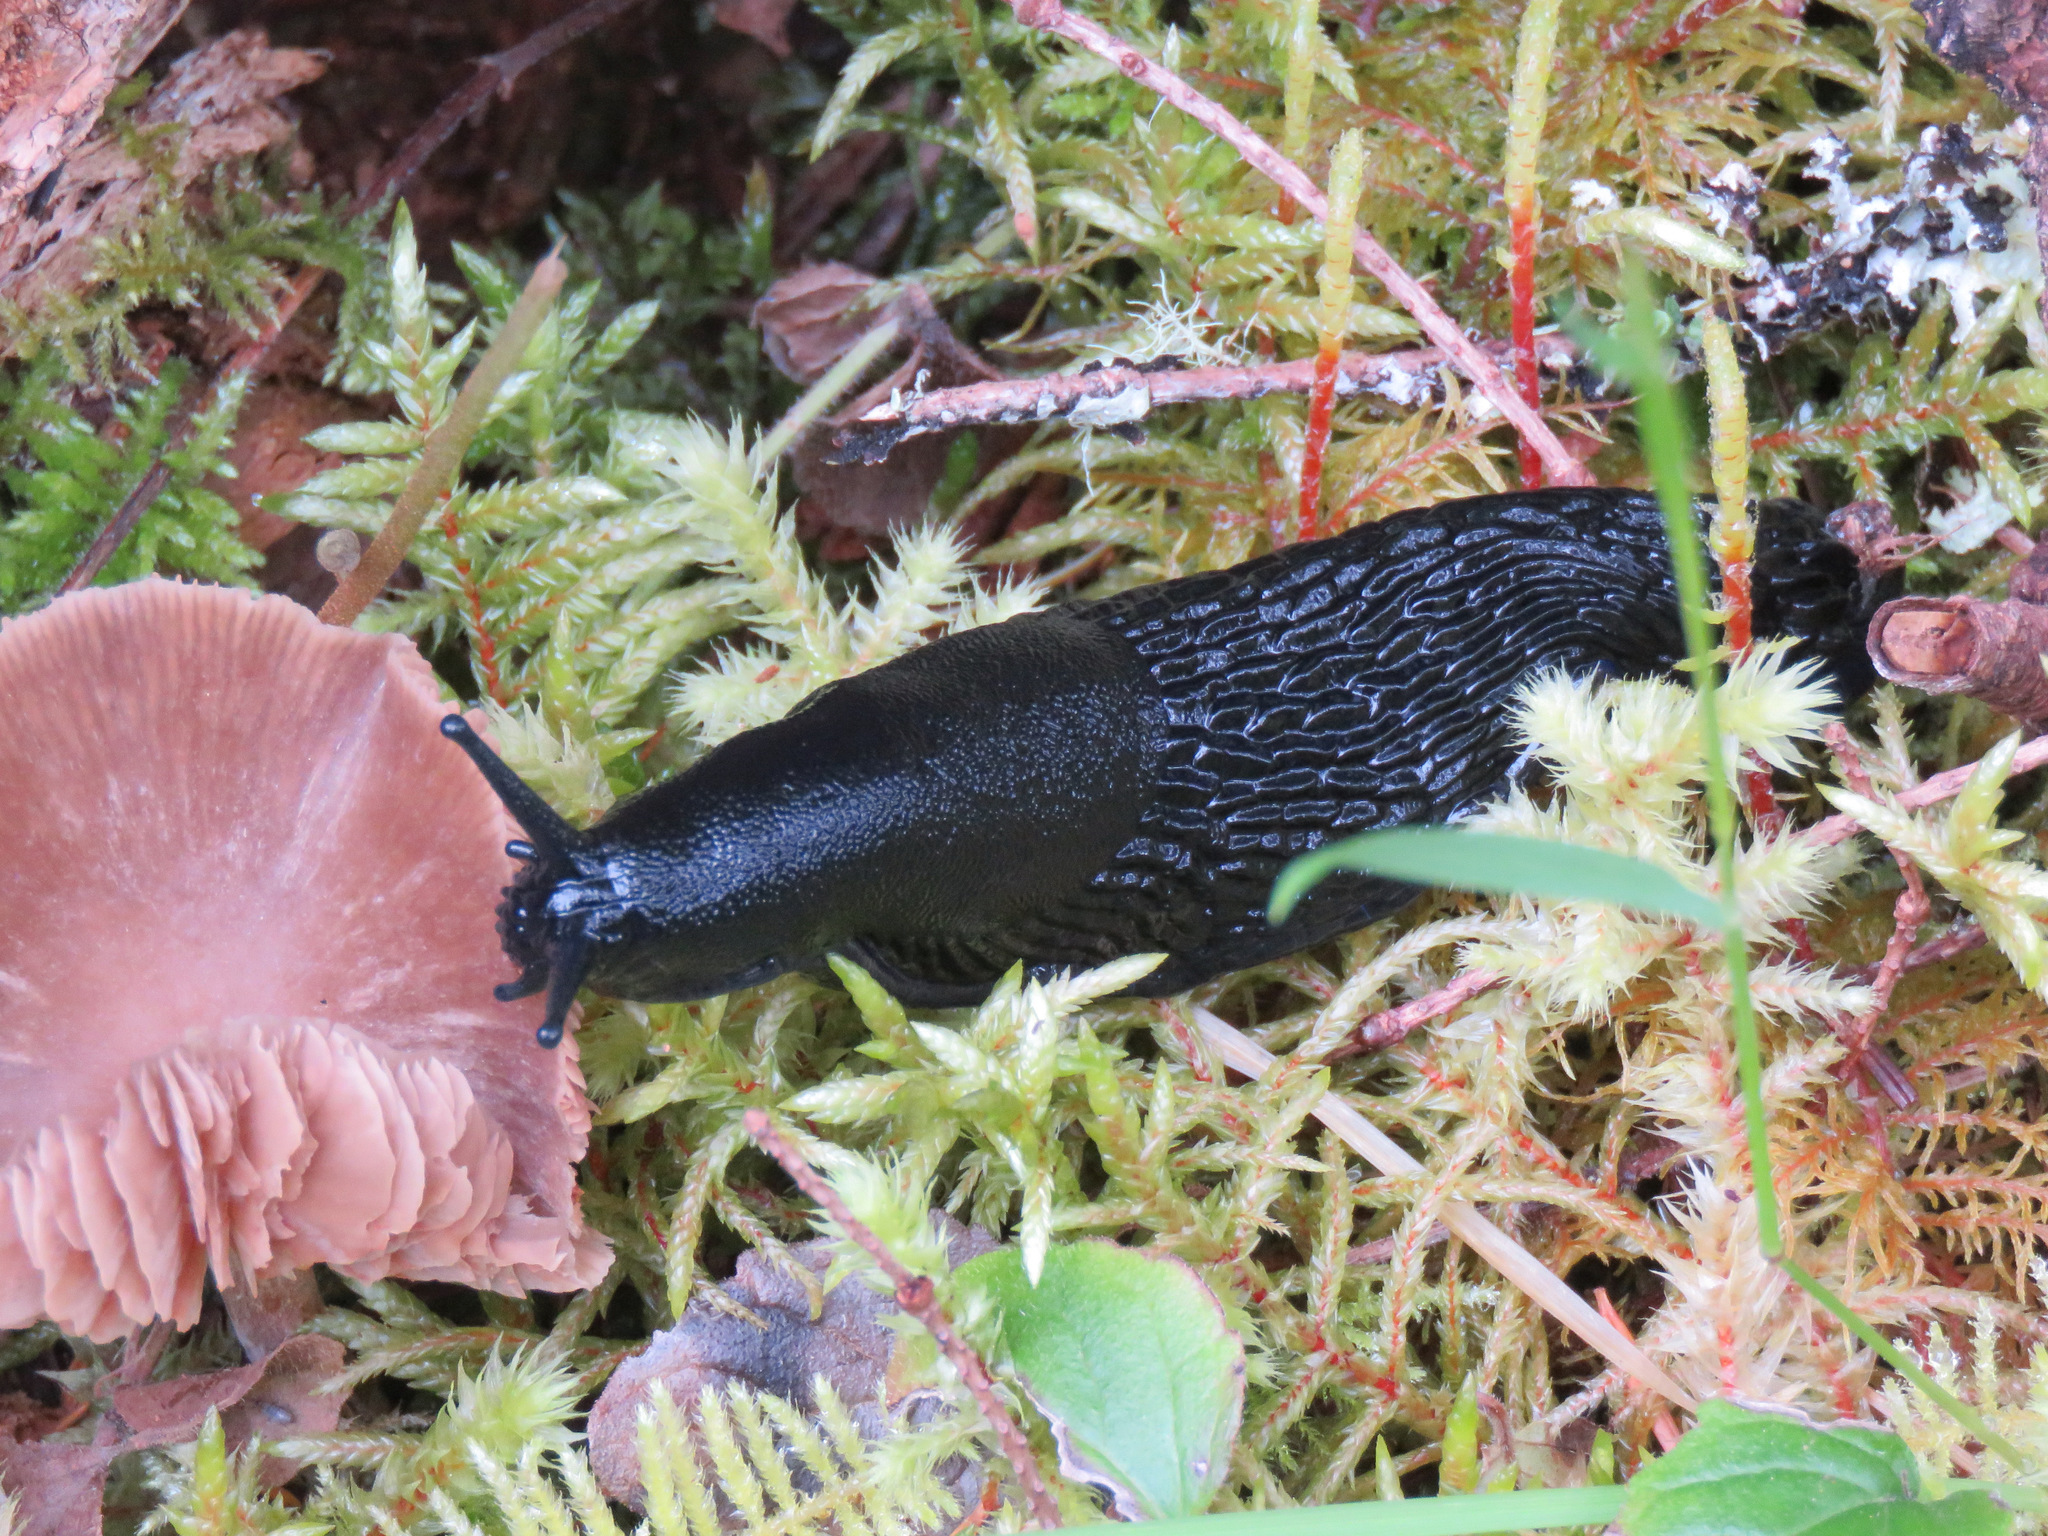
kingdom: Animalia
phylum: Mollusca
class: Gastropoda
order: Stylommatophora
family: Arionidae
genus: Arion
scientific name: Arion
